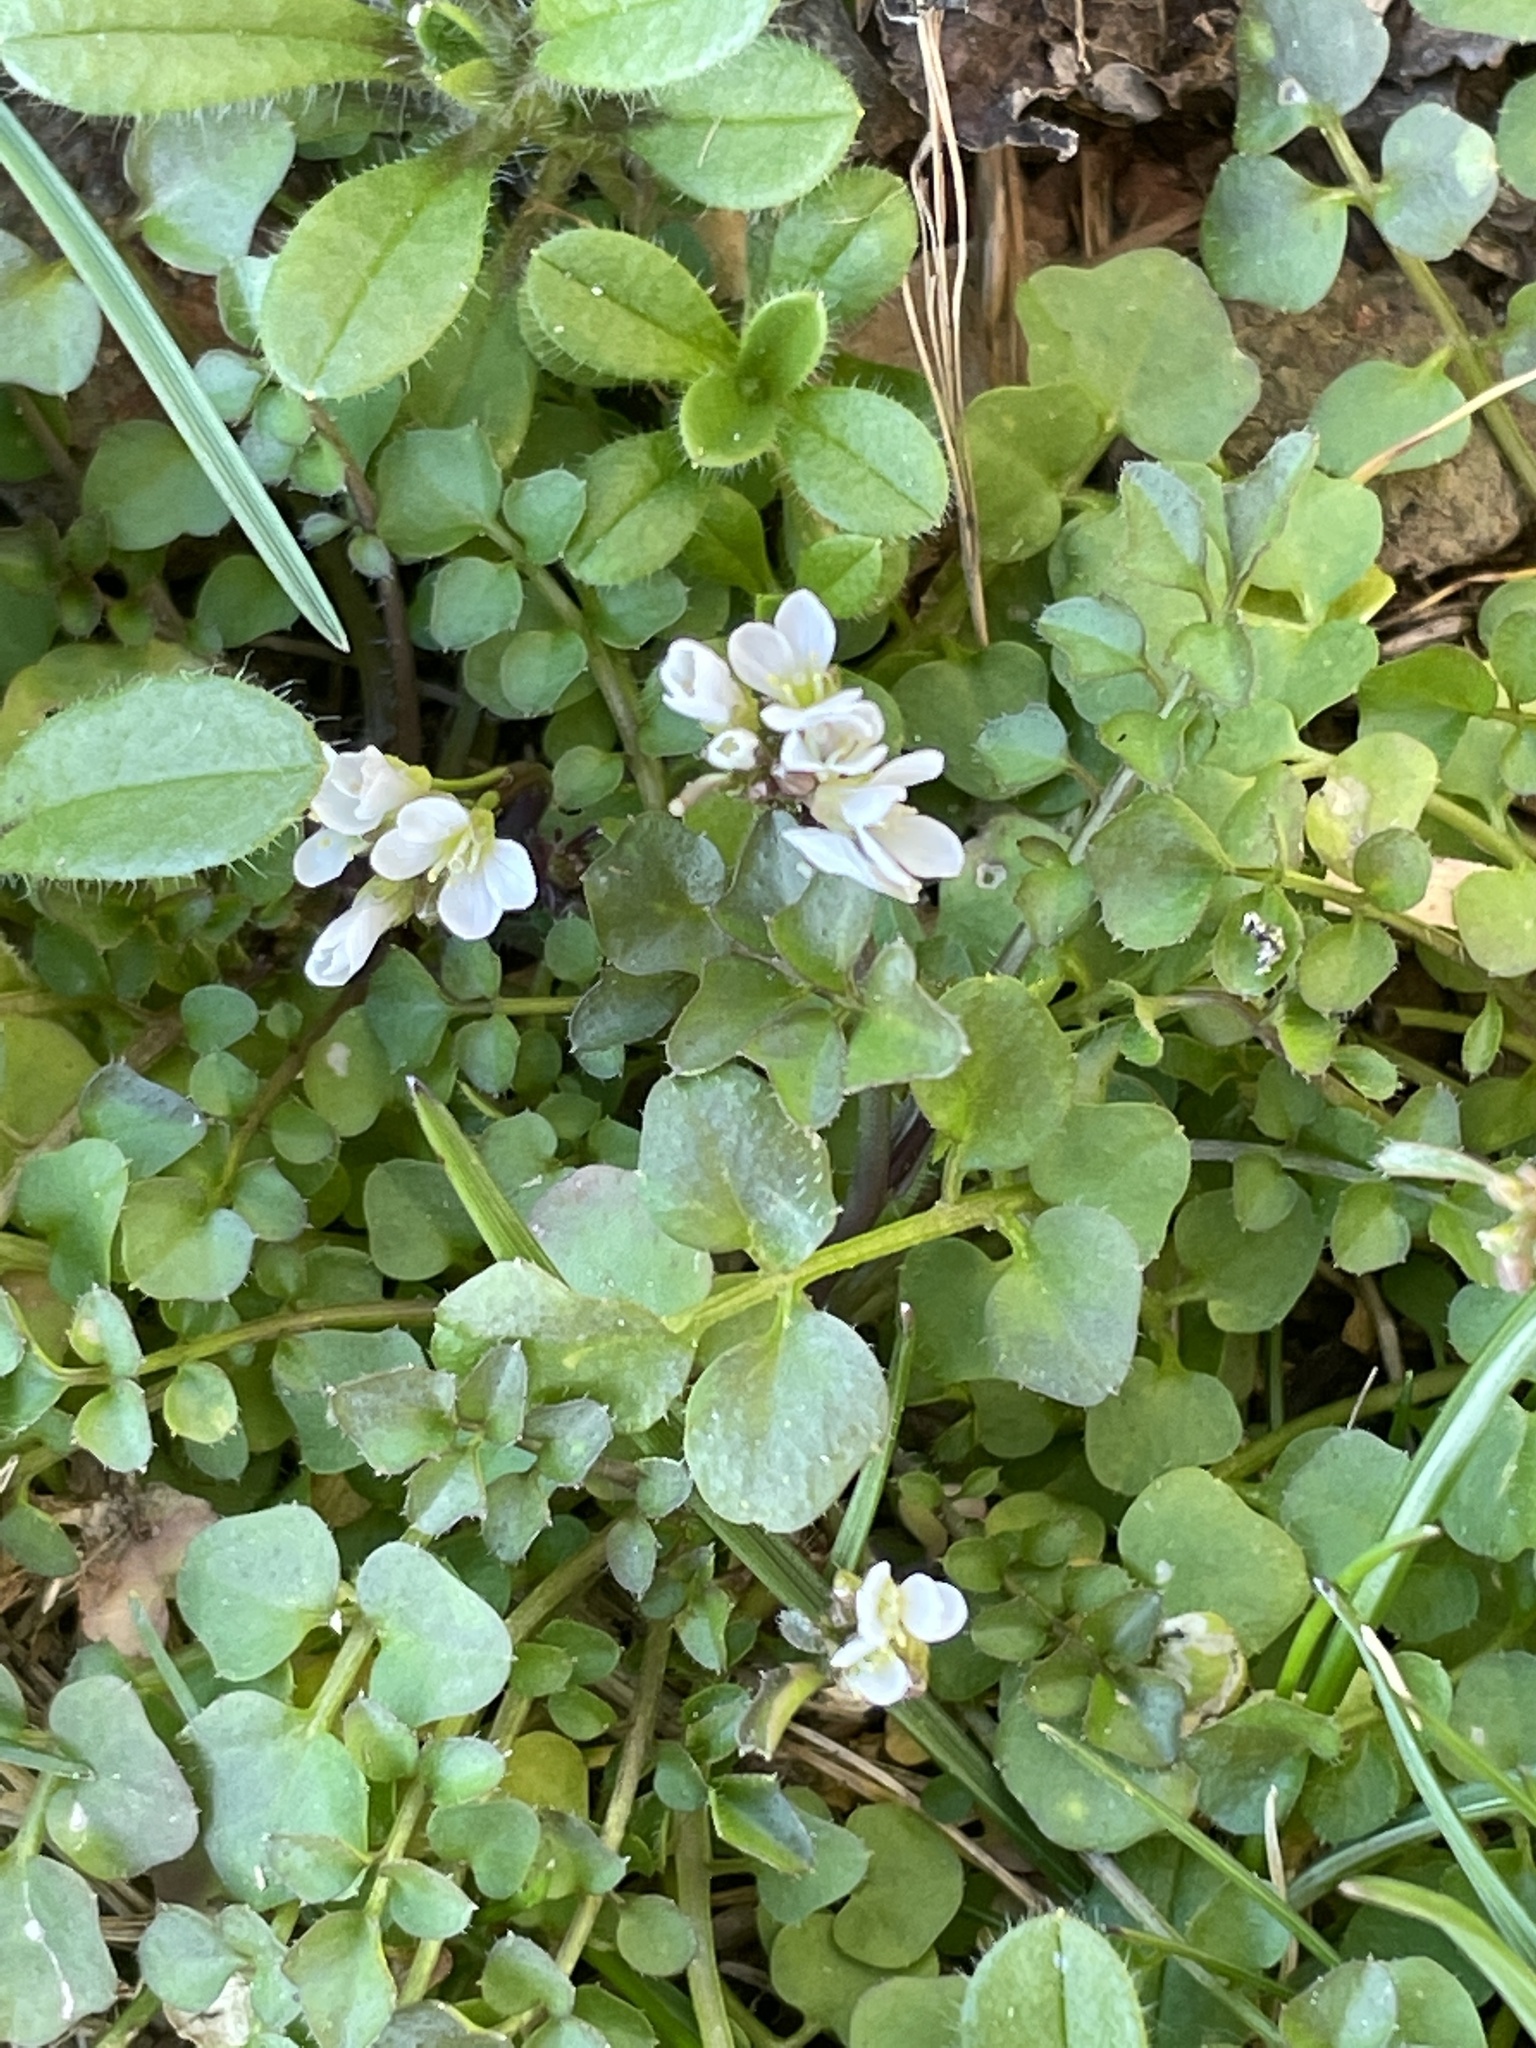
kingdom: Plantae
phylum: Tracheophyta
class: Magnoliopsida
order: Brassicales
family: Brassicaceae
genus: Cardamine
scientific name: Cardamine hirsuta
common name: Hairy bittercress
